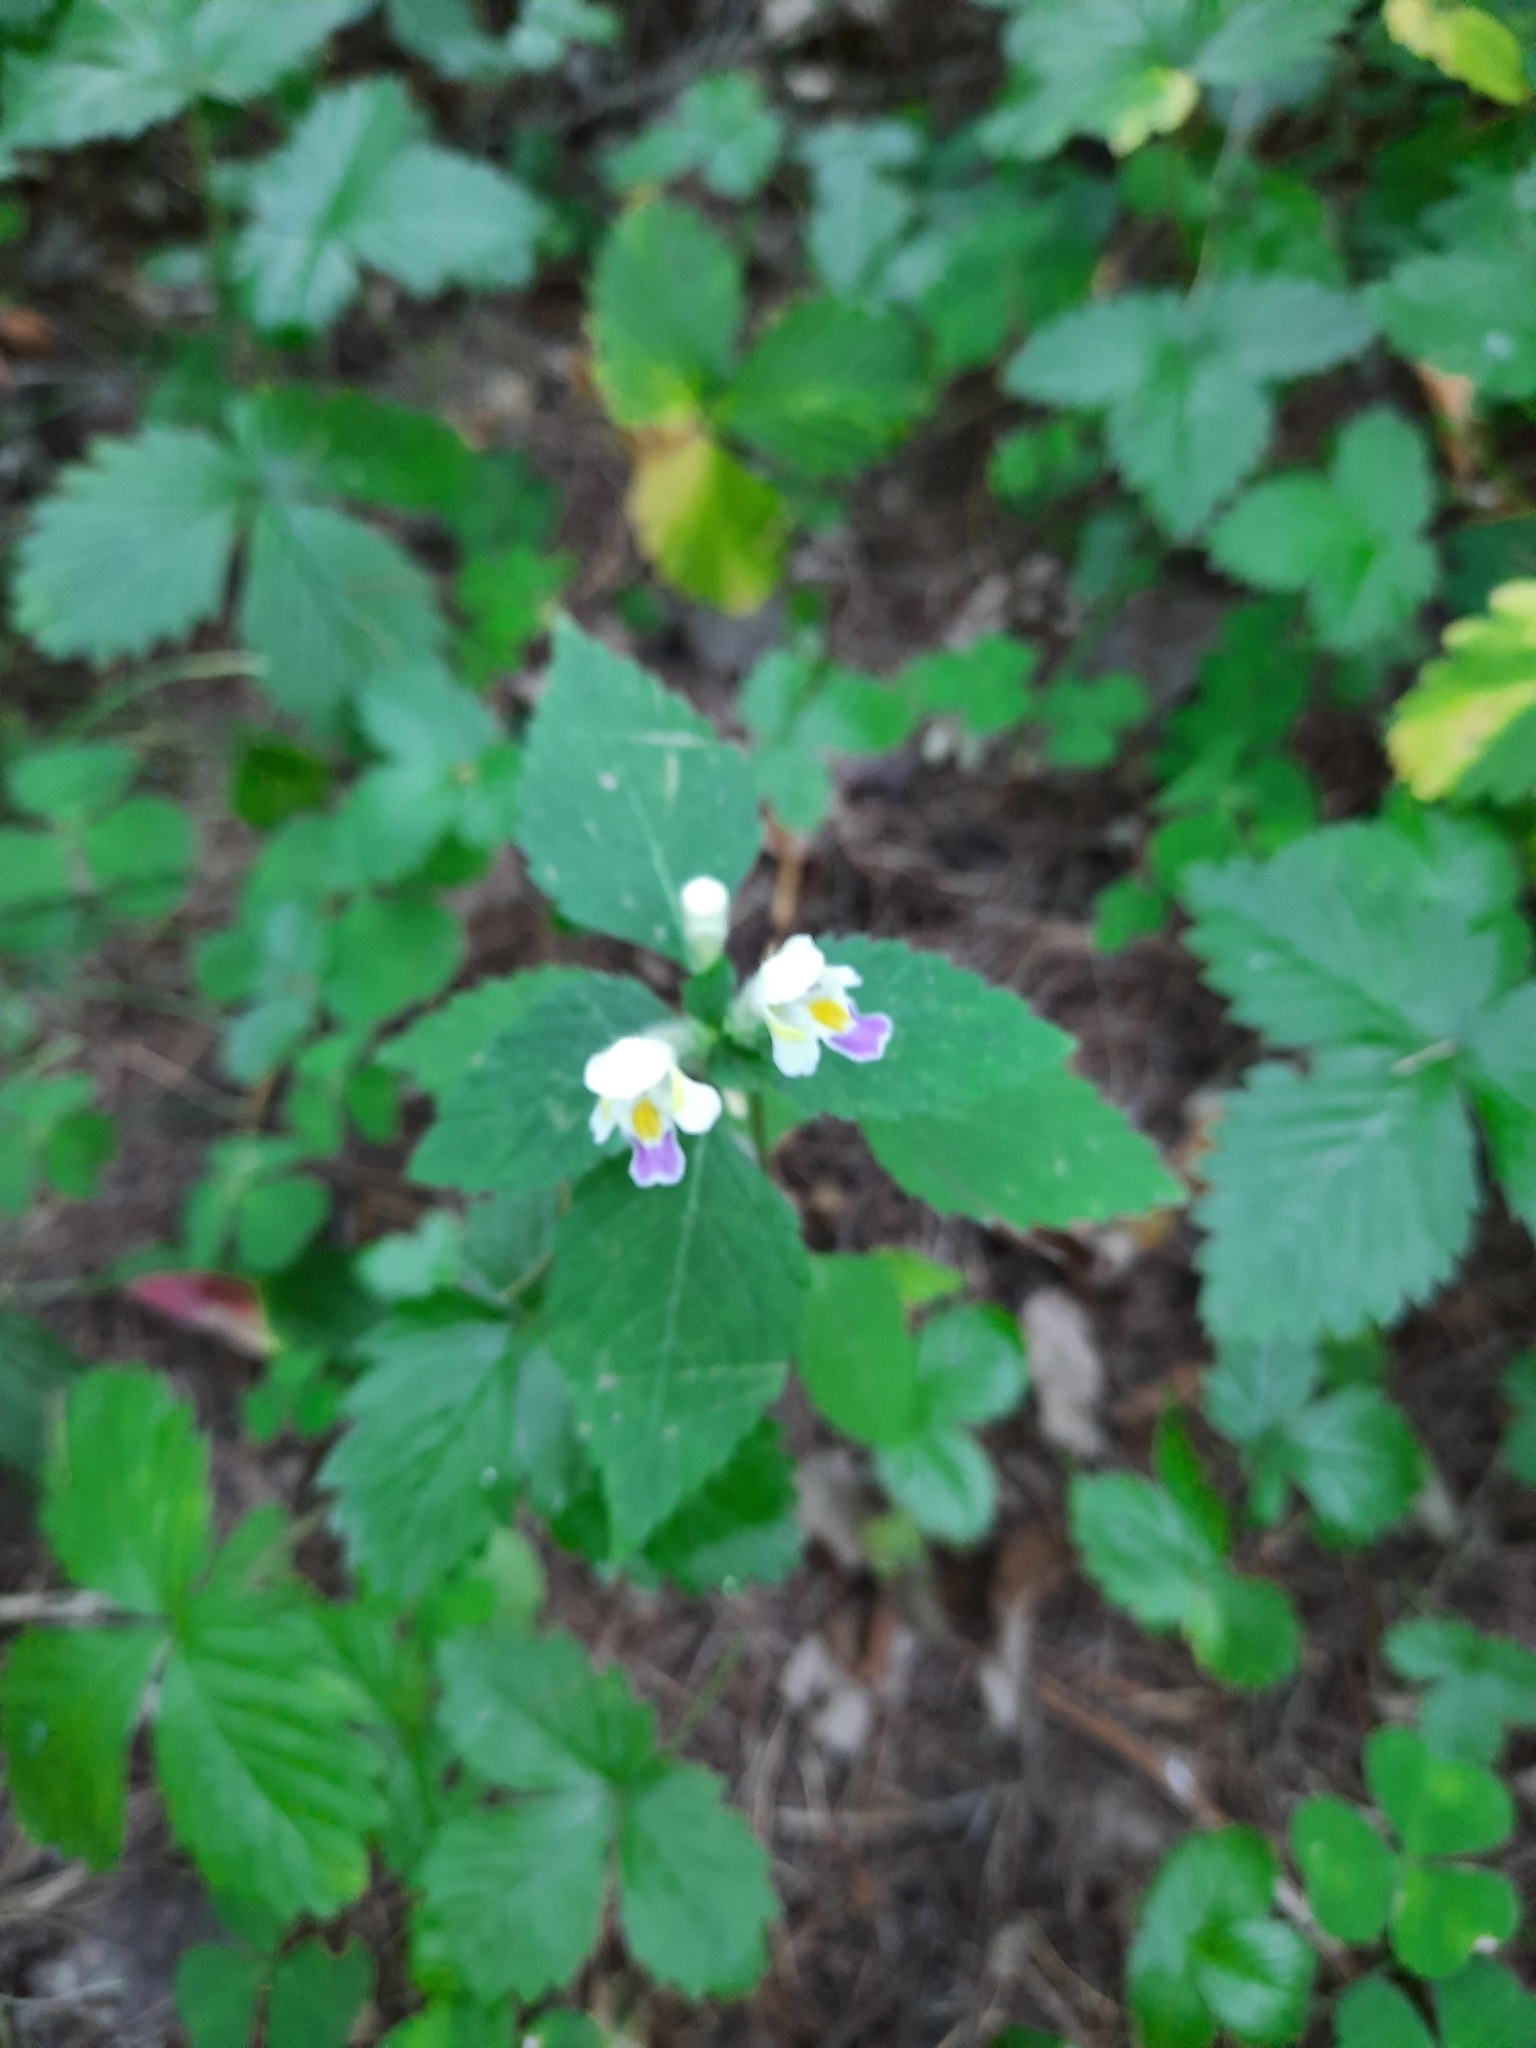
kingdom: Plantae
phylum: Tracheophyta
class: Magnoliopsida
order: Lamiales
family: Lamiaceae
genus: Galeopsis
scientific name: Galeopsis speciosa
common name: Large-flowered hemp-nettle
